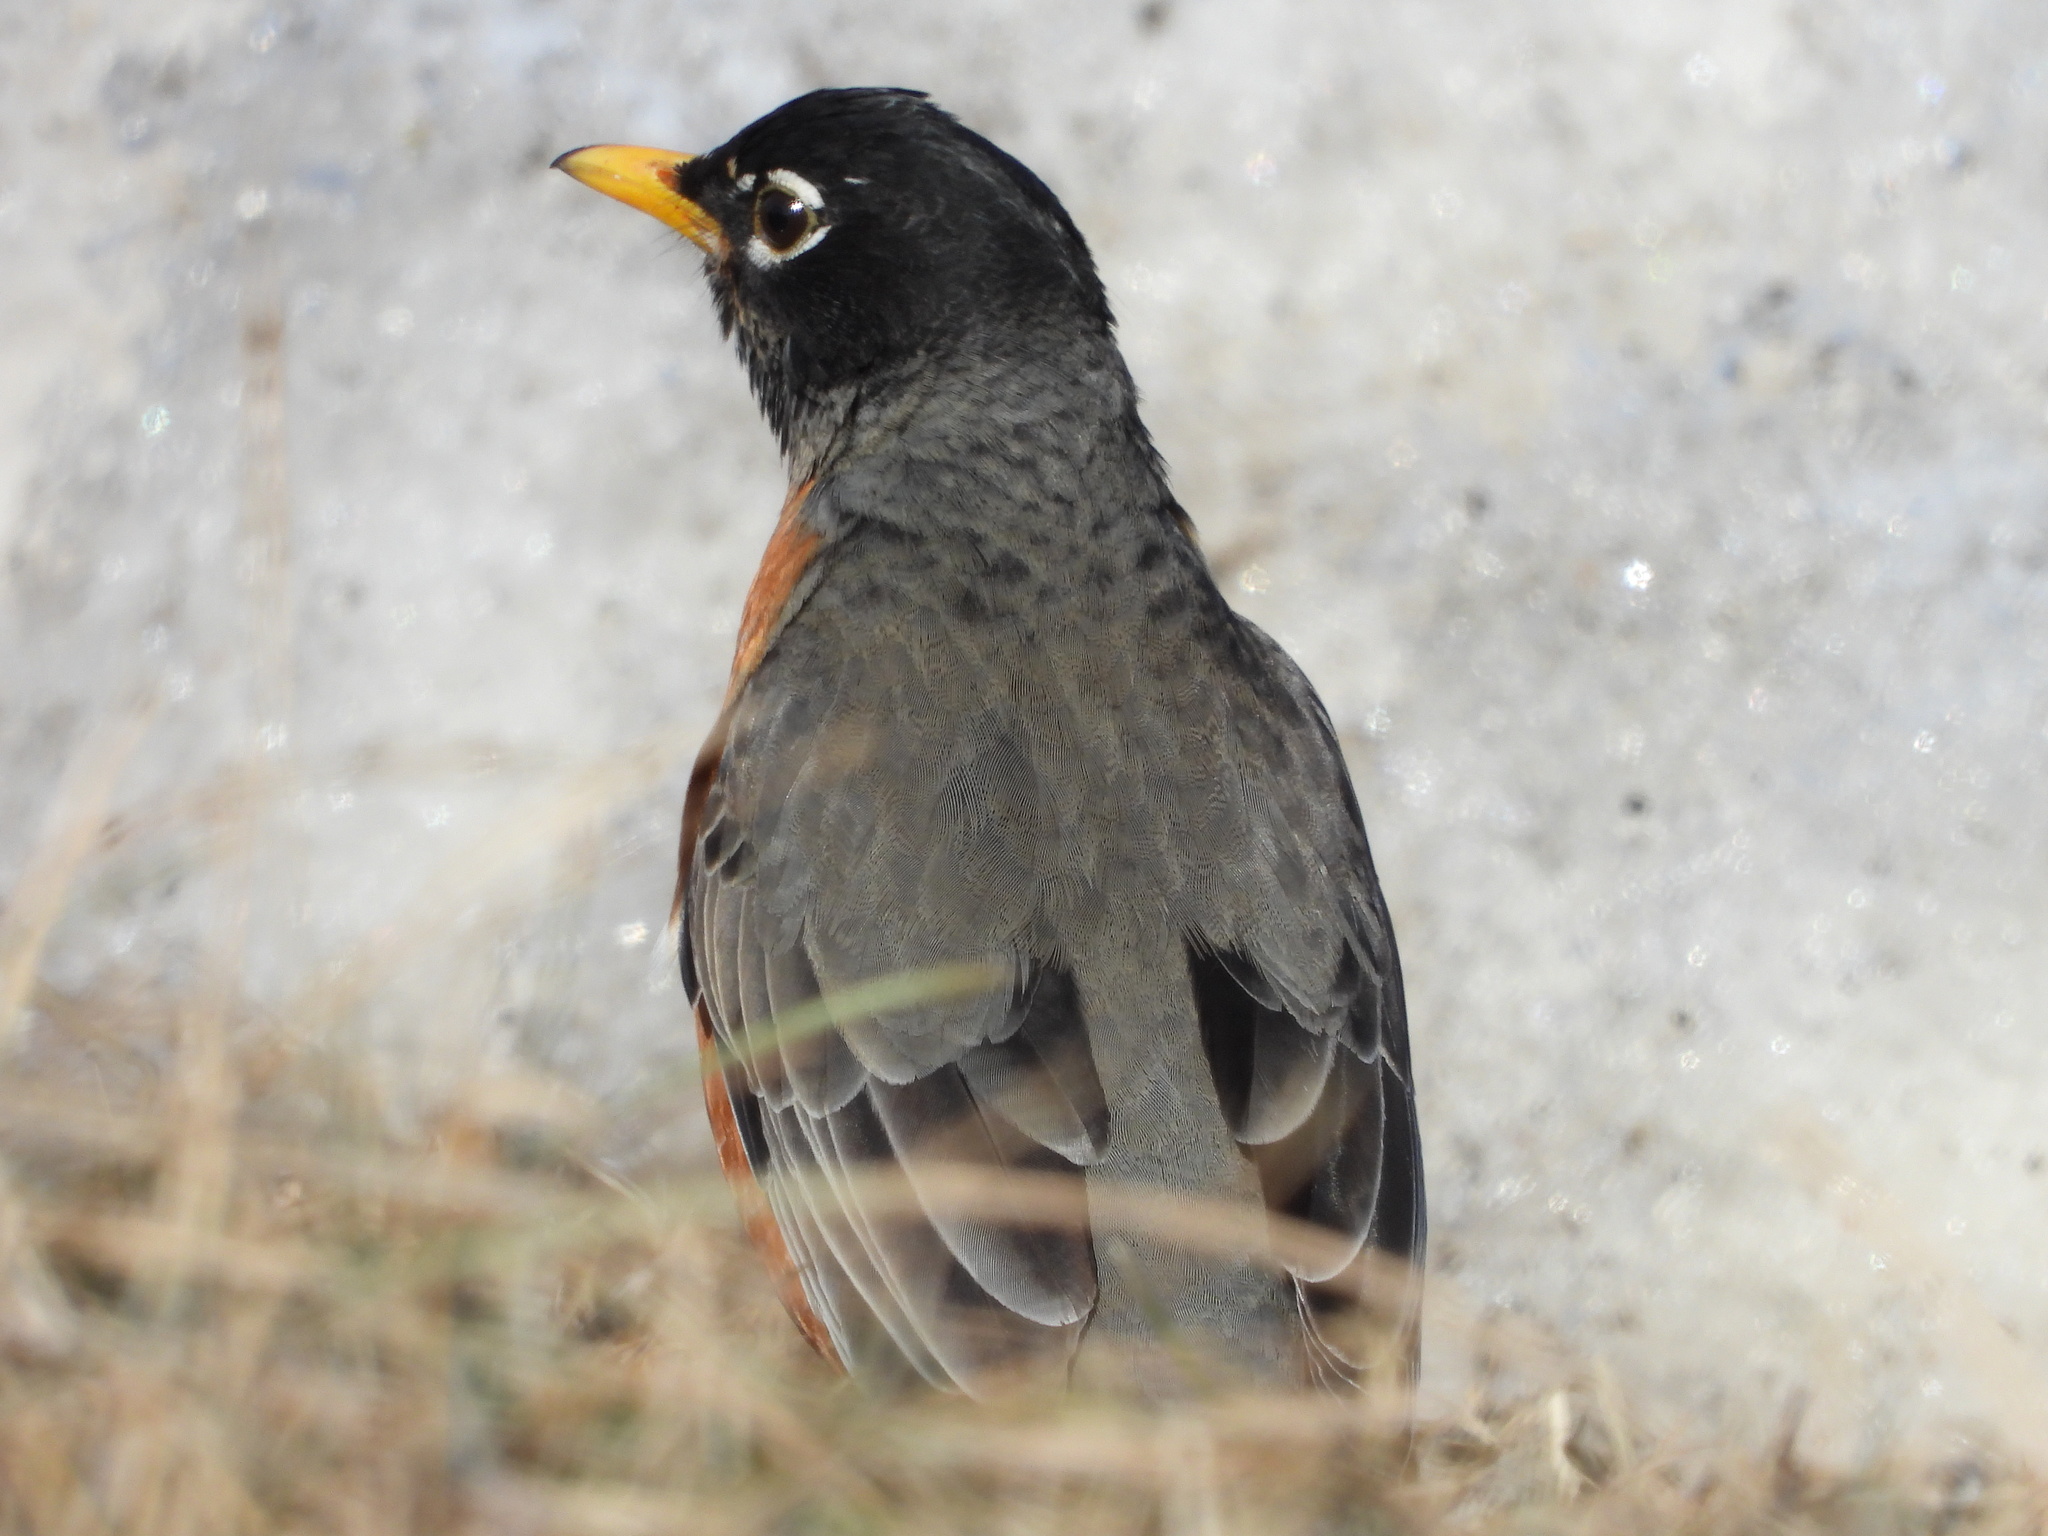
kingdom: Animalia
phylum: Chordata
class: Aves
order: Passeriformes
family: Turdidae
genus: Turdus
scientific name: Turdus migratorius
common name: American robin
